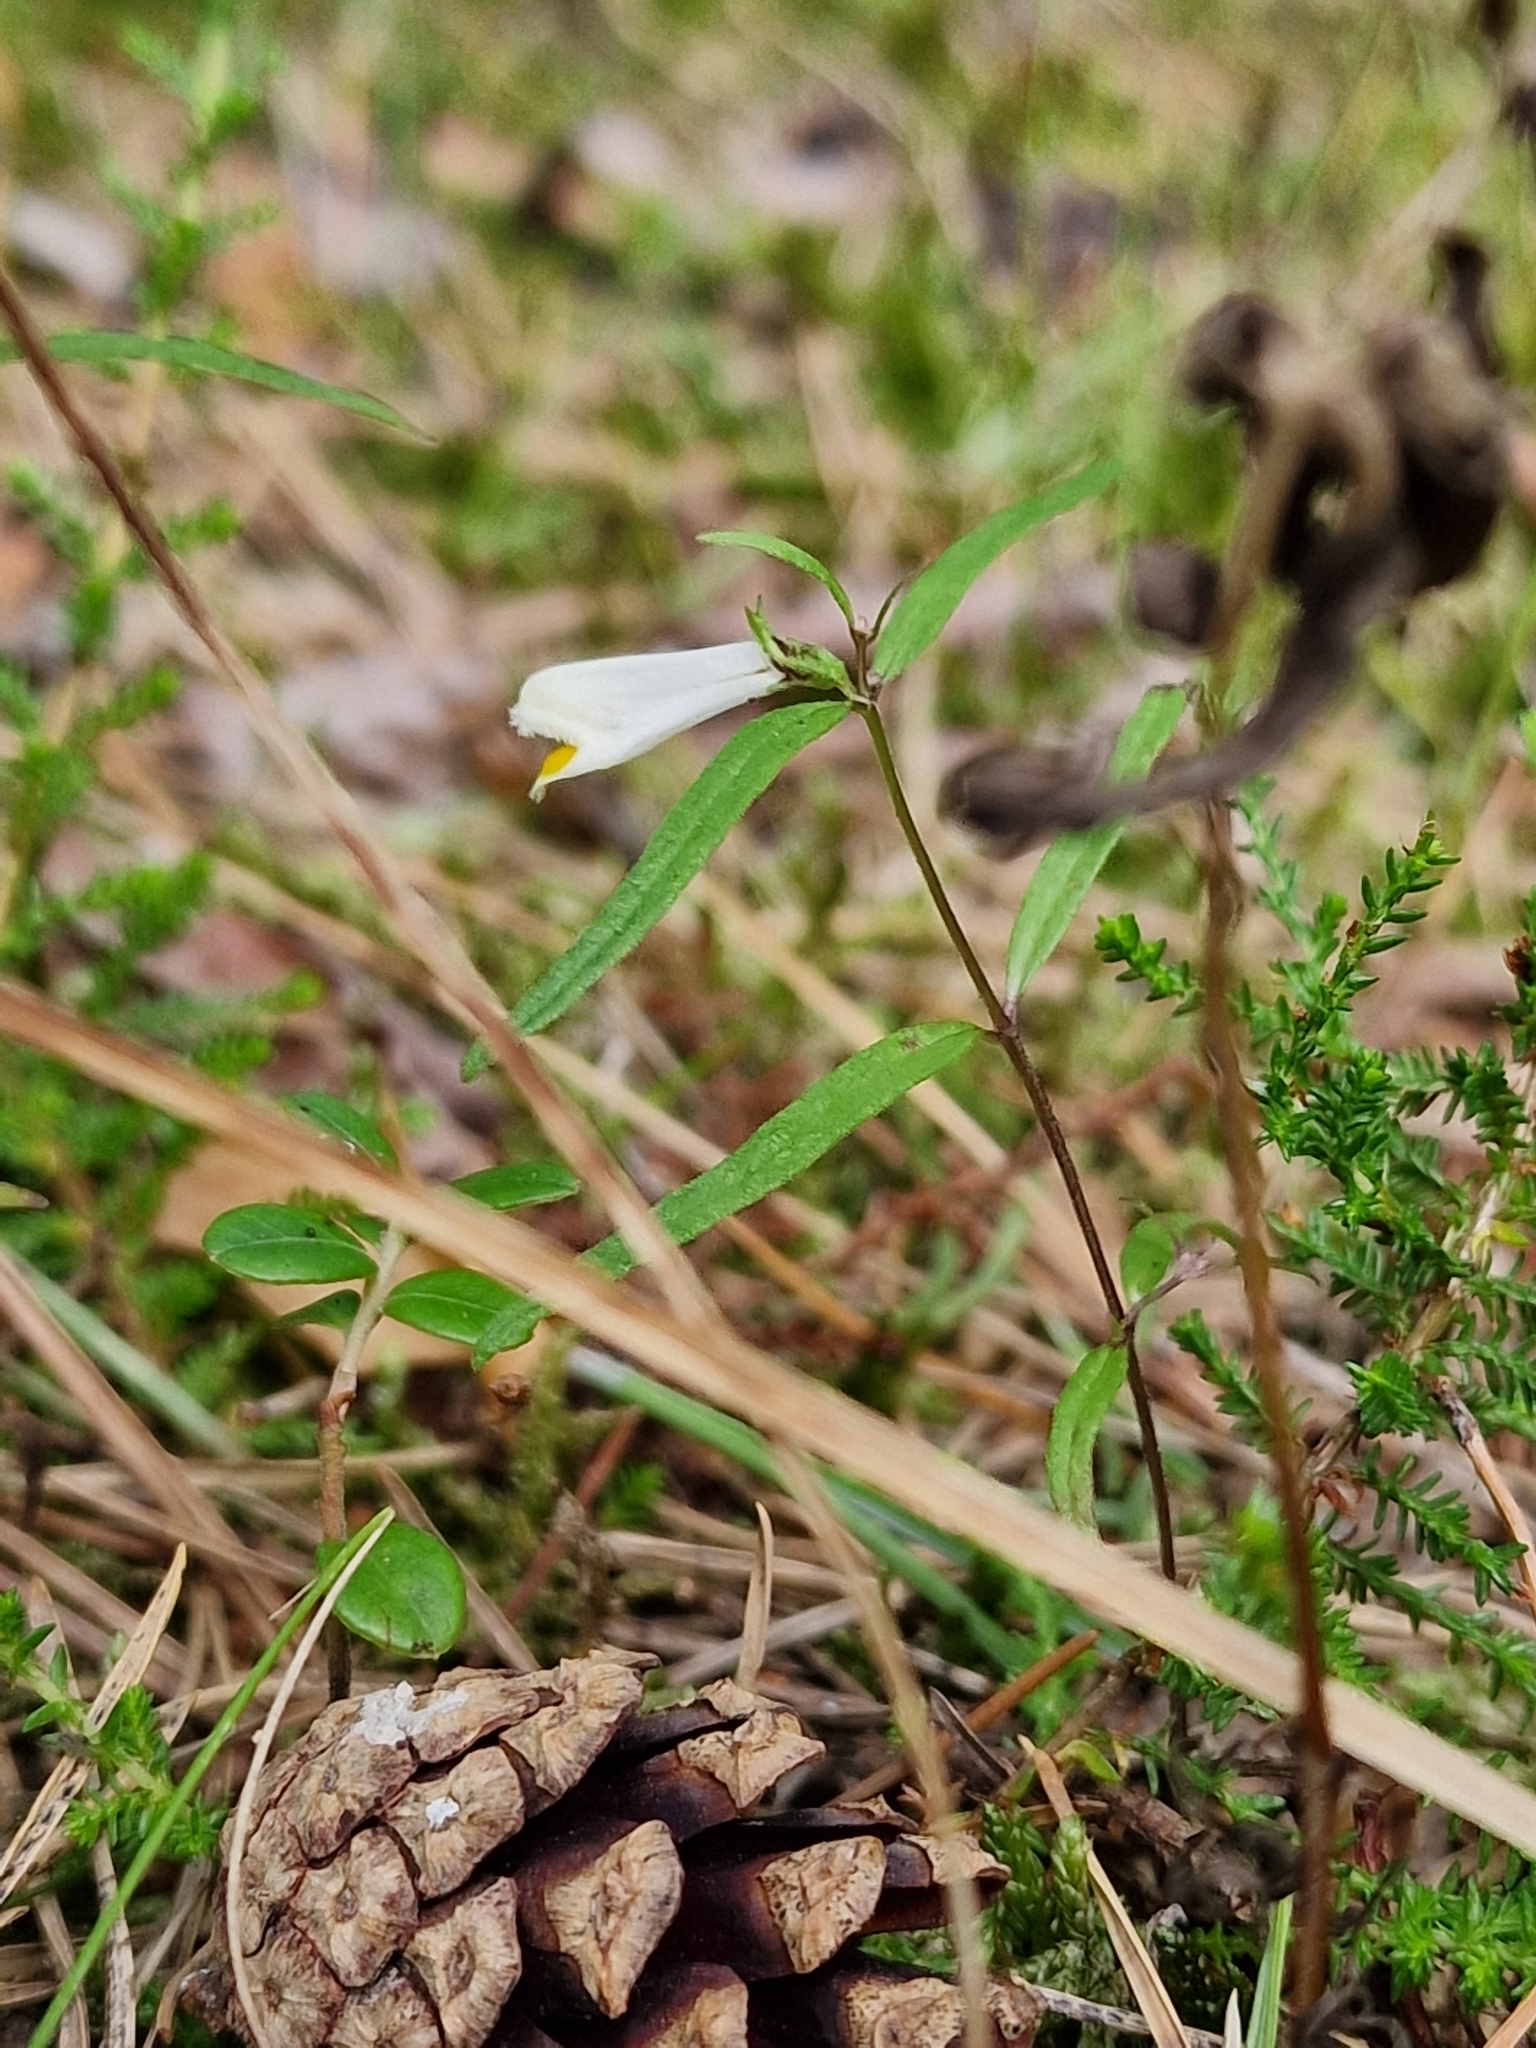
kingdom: Plantae
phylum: Tracheophyta
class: Magnoliopsida
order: Lamiales
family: Orobanchaceae
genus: Melampyrum
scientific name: Melampyrum pratense
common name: Common cow-wheat
